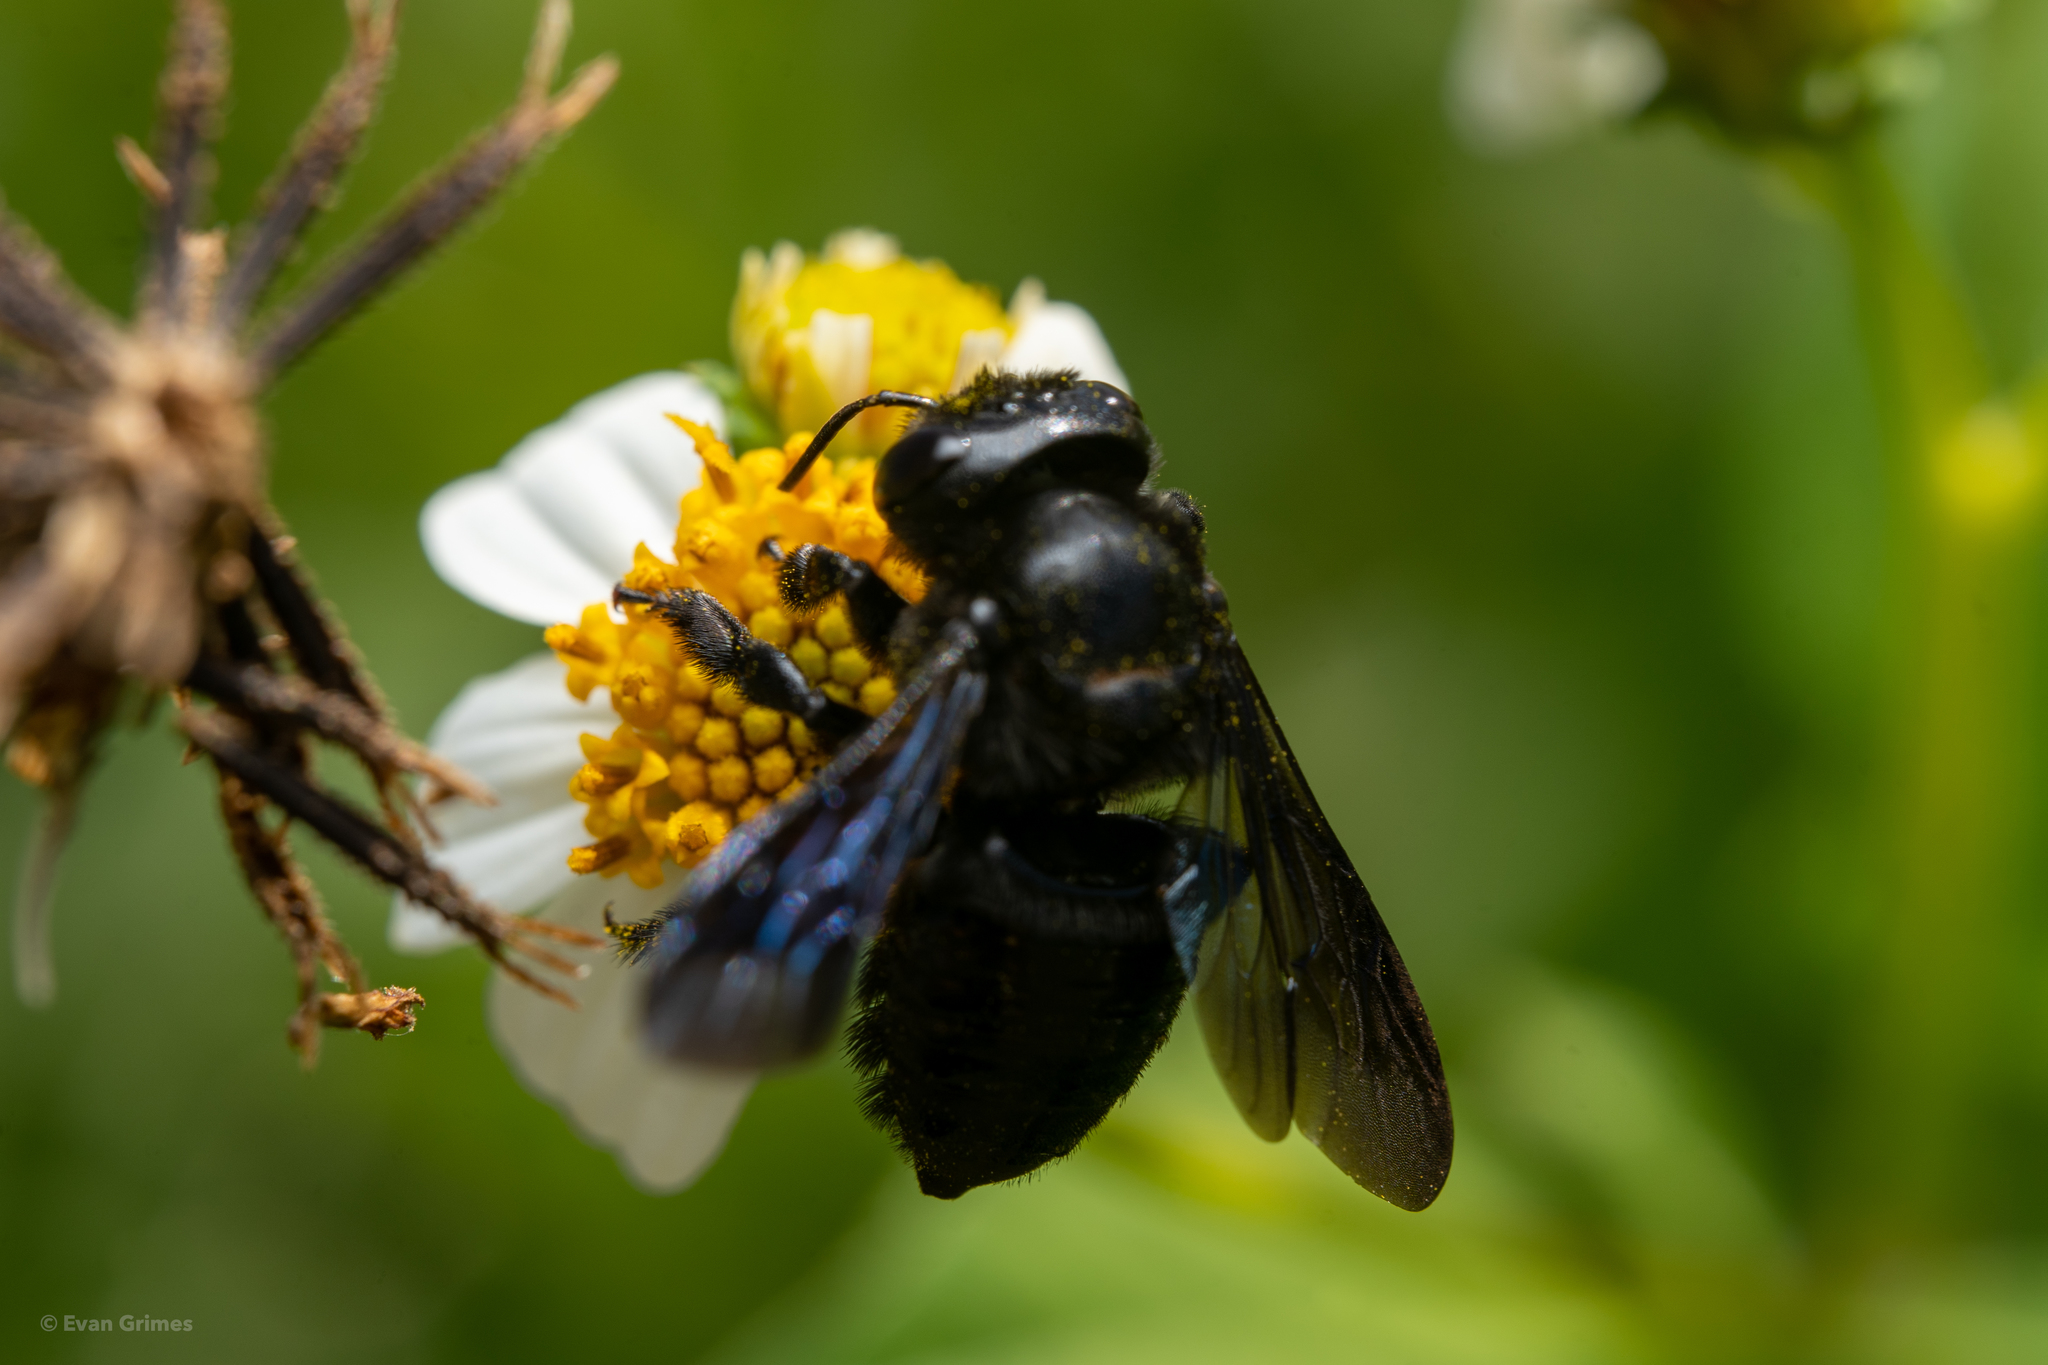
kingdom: Animalia
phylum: Arthropoda
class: Insecta
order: Hymenoptera
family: Megachilidae
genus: Megachile
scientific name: Megachile xylocopoides
